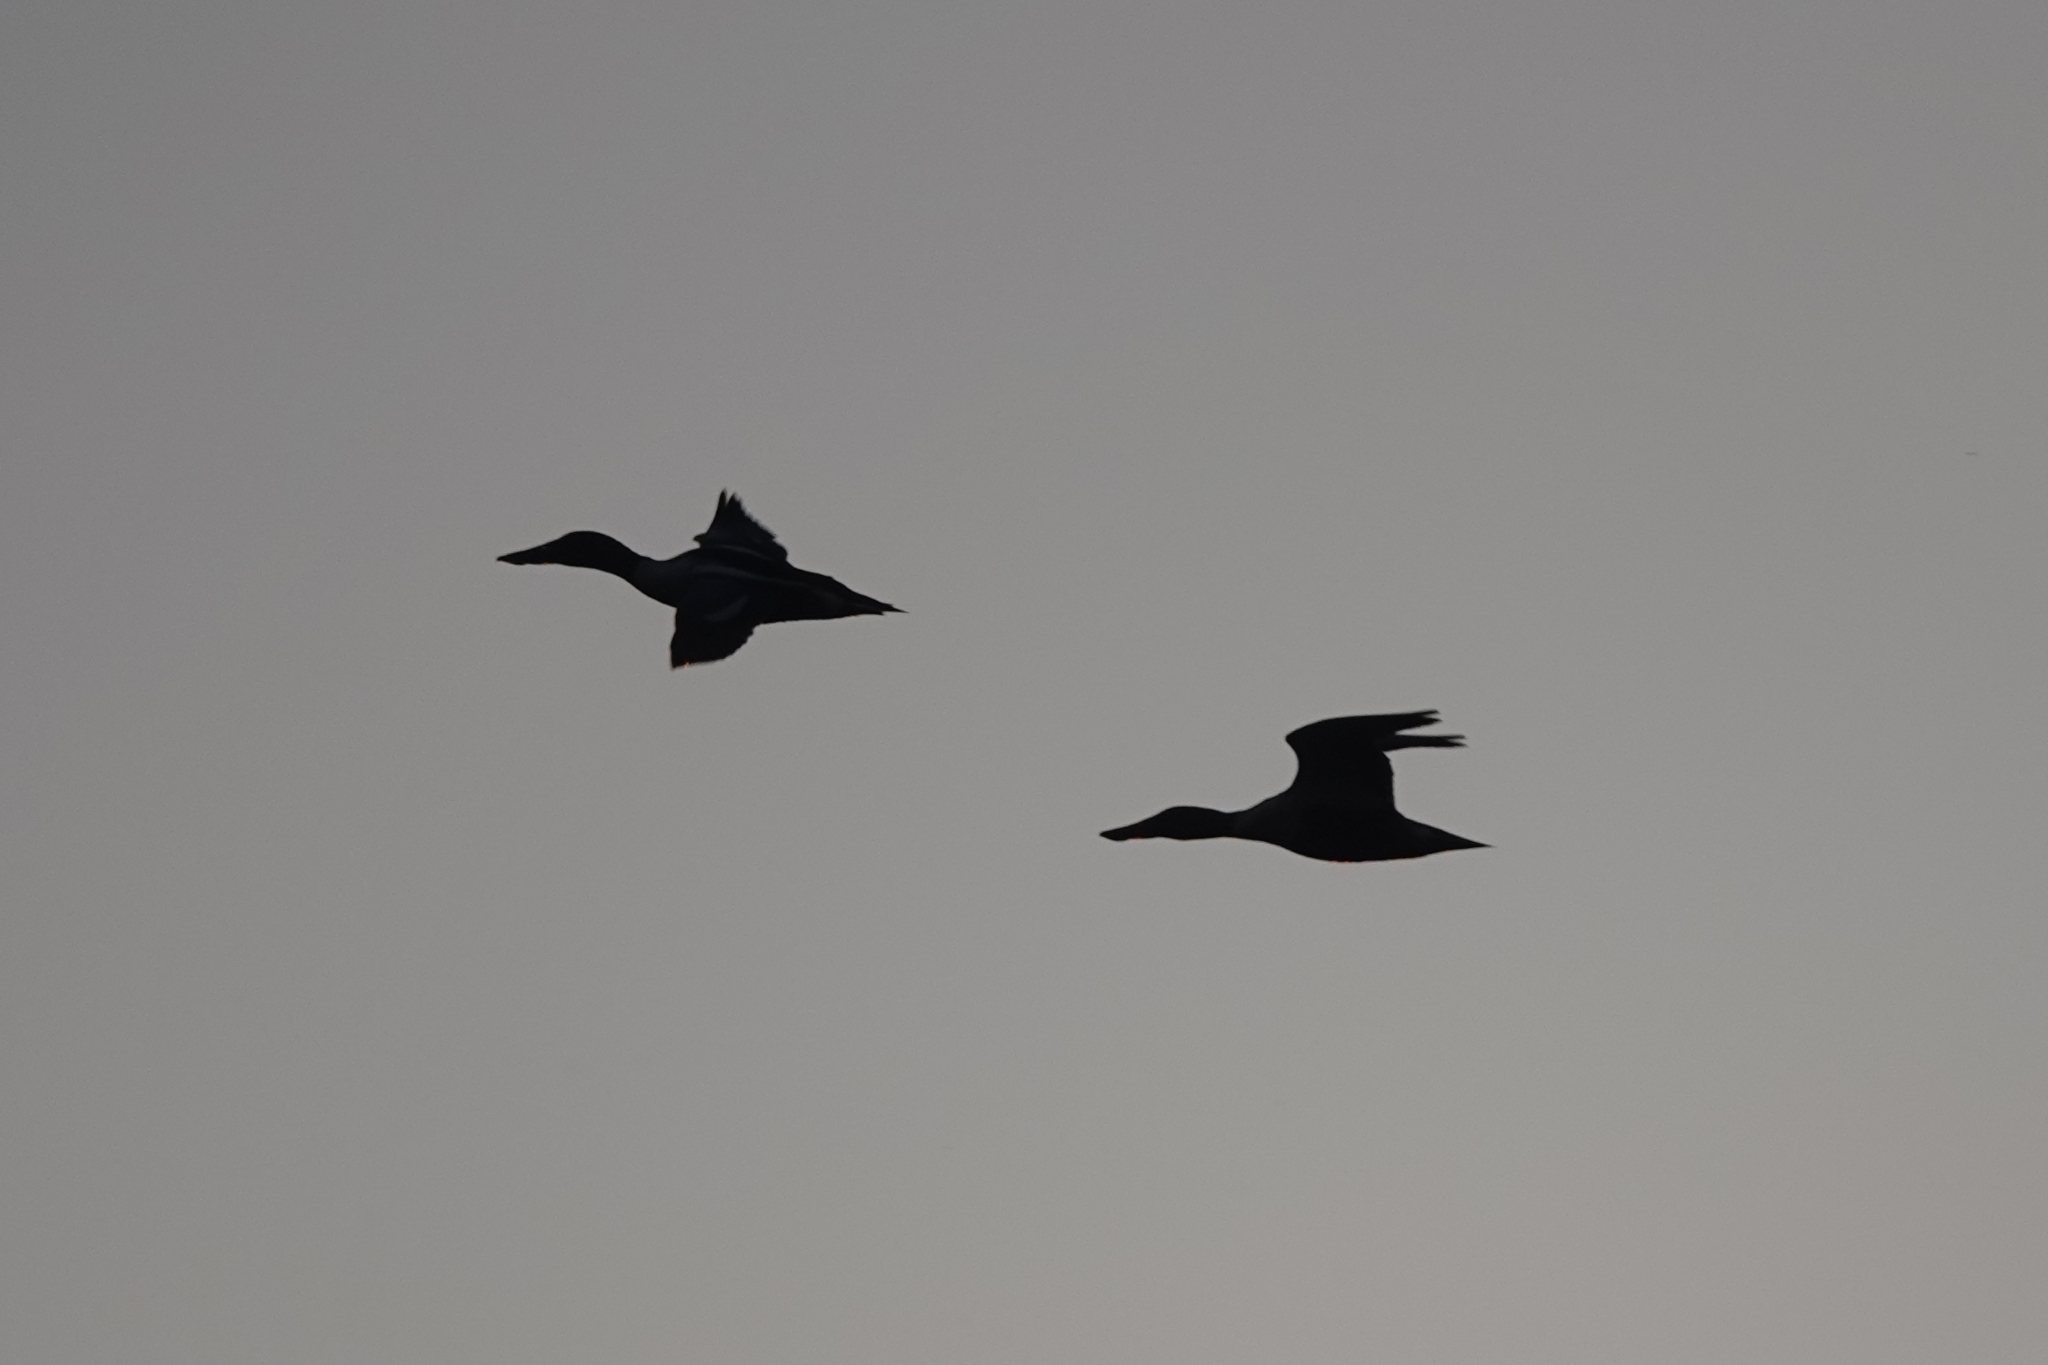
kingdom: Animalia
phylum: Chordata
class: Aves
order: Anseriformes
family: Anatidae
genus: Spatula
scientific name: Spatula clypeata
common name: Northern shoveler
